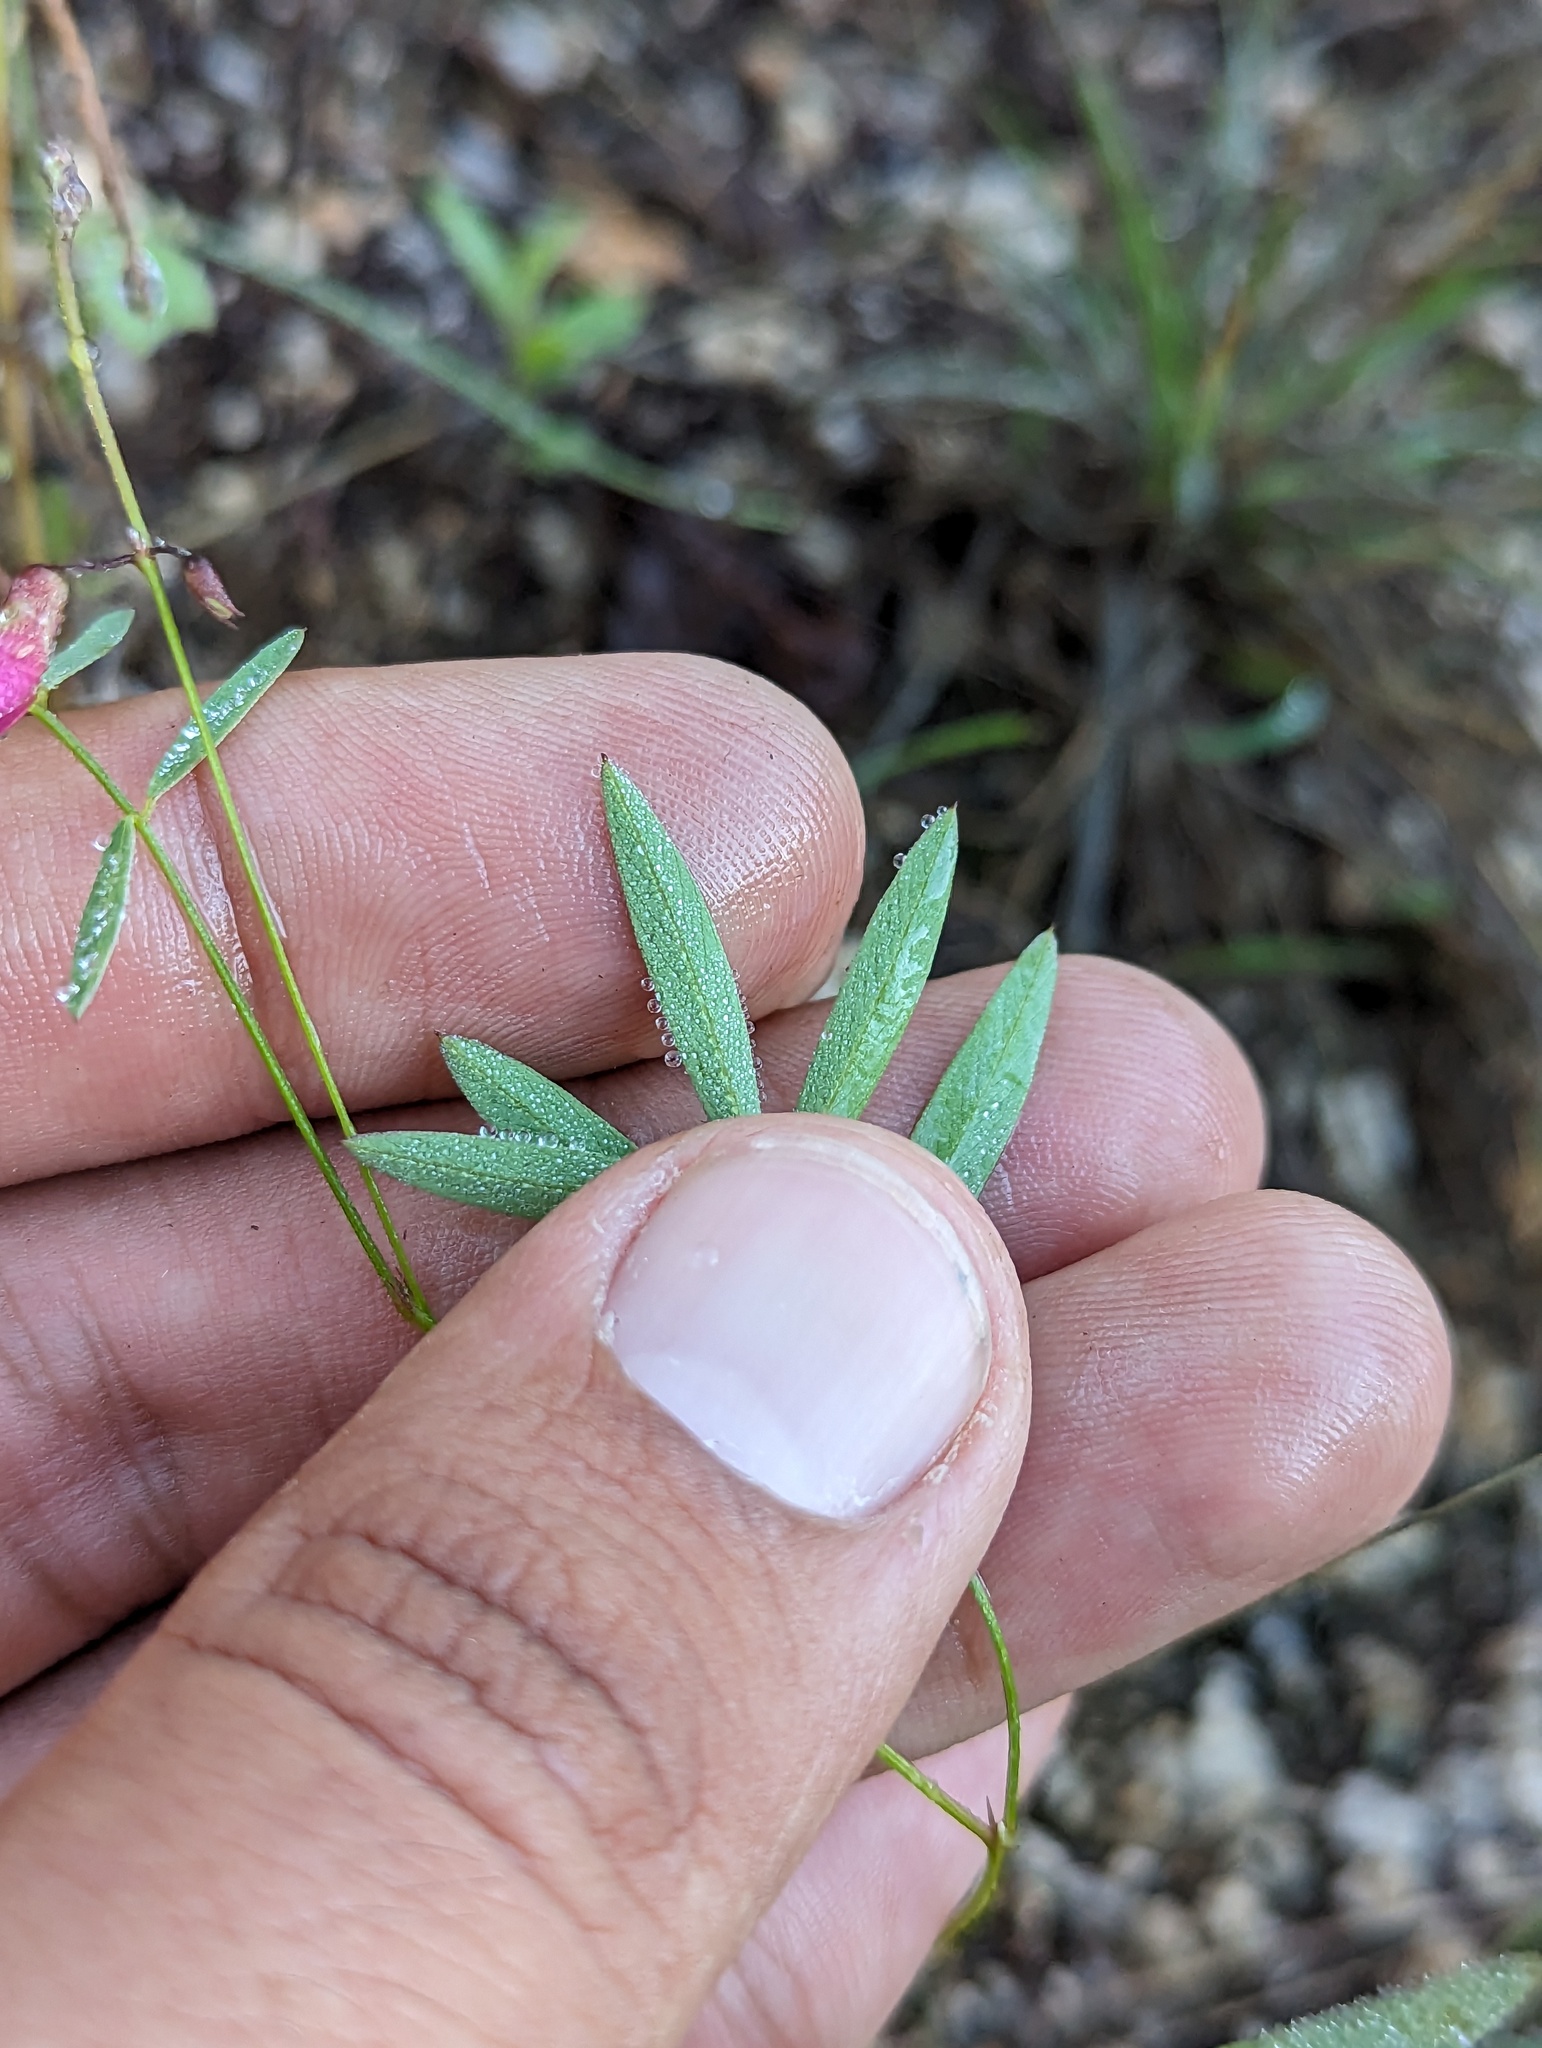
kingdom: Plantae
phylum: Tracheophyta
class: Magnoliopsida
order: Fabales
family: Fabaceae
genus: Tephrosia
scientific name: Tephrosia vicioides
